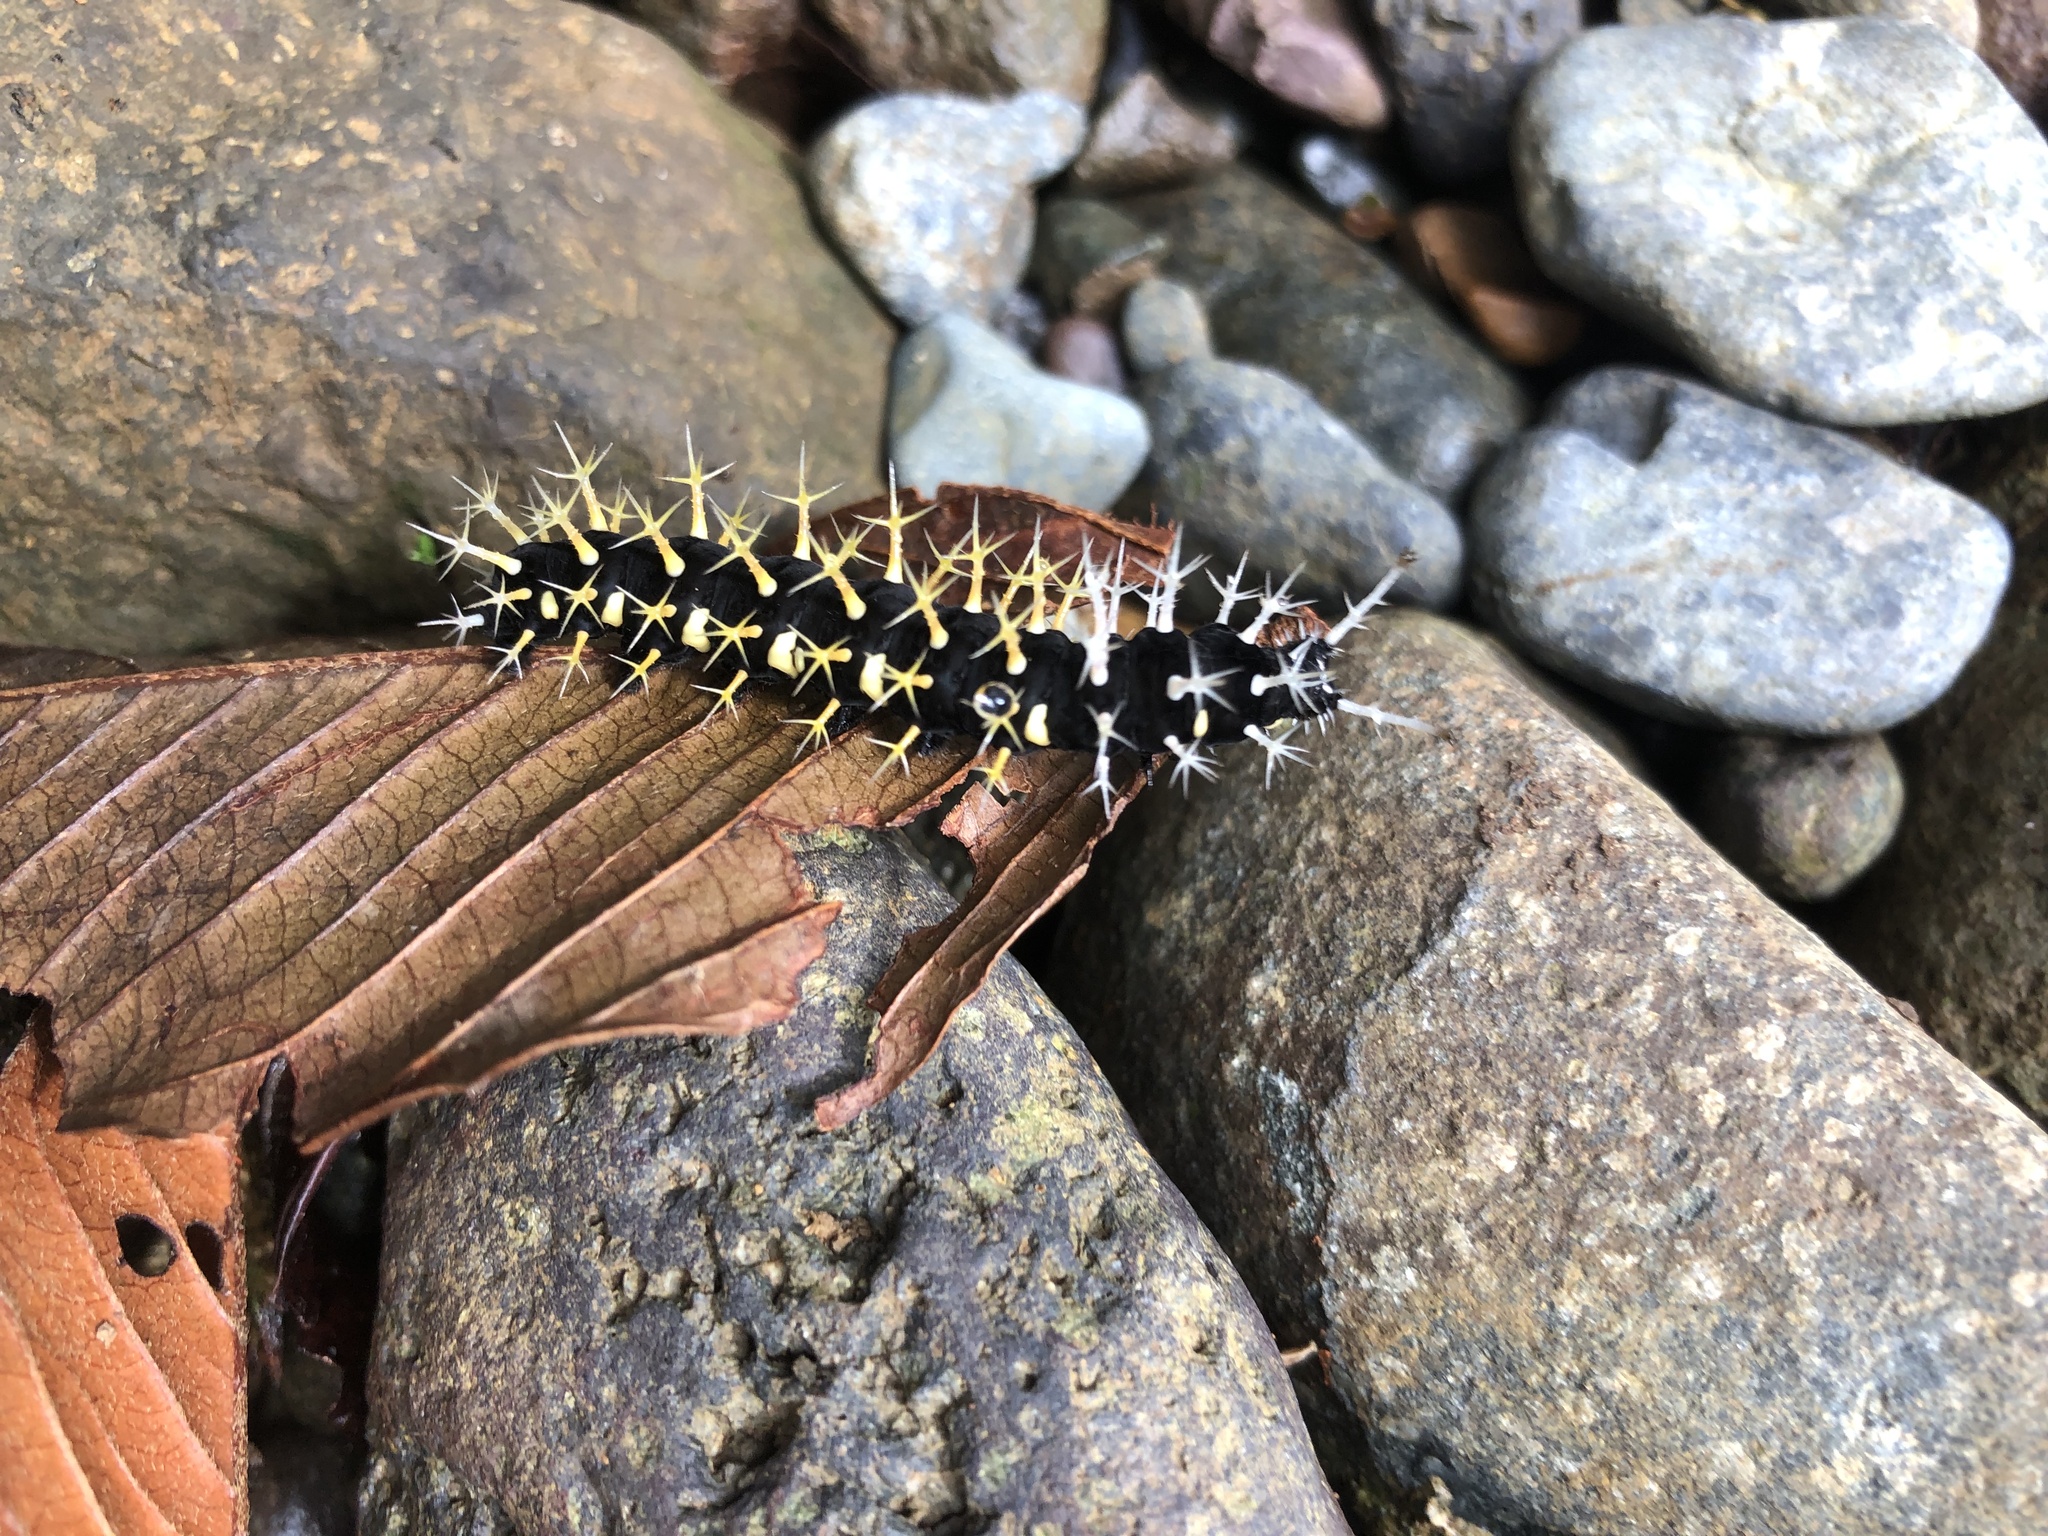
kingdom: Animalia
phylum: Arthropoda
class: Insecta
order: Lepidoptera
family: Nymphalidae
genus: Colobura
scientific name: Colobura dirce
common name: Dirce beauty
